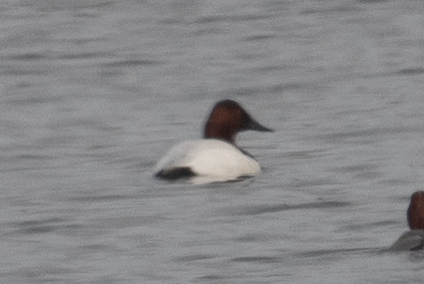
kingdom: Animalia
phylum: Chordata
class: Aves
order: Anseriformes
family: Anatidae
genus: Aythya
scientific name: Aythya valisineria
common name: Canvasback
